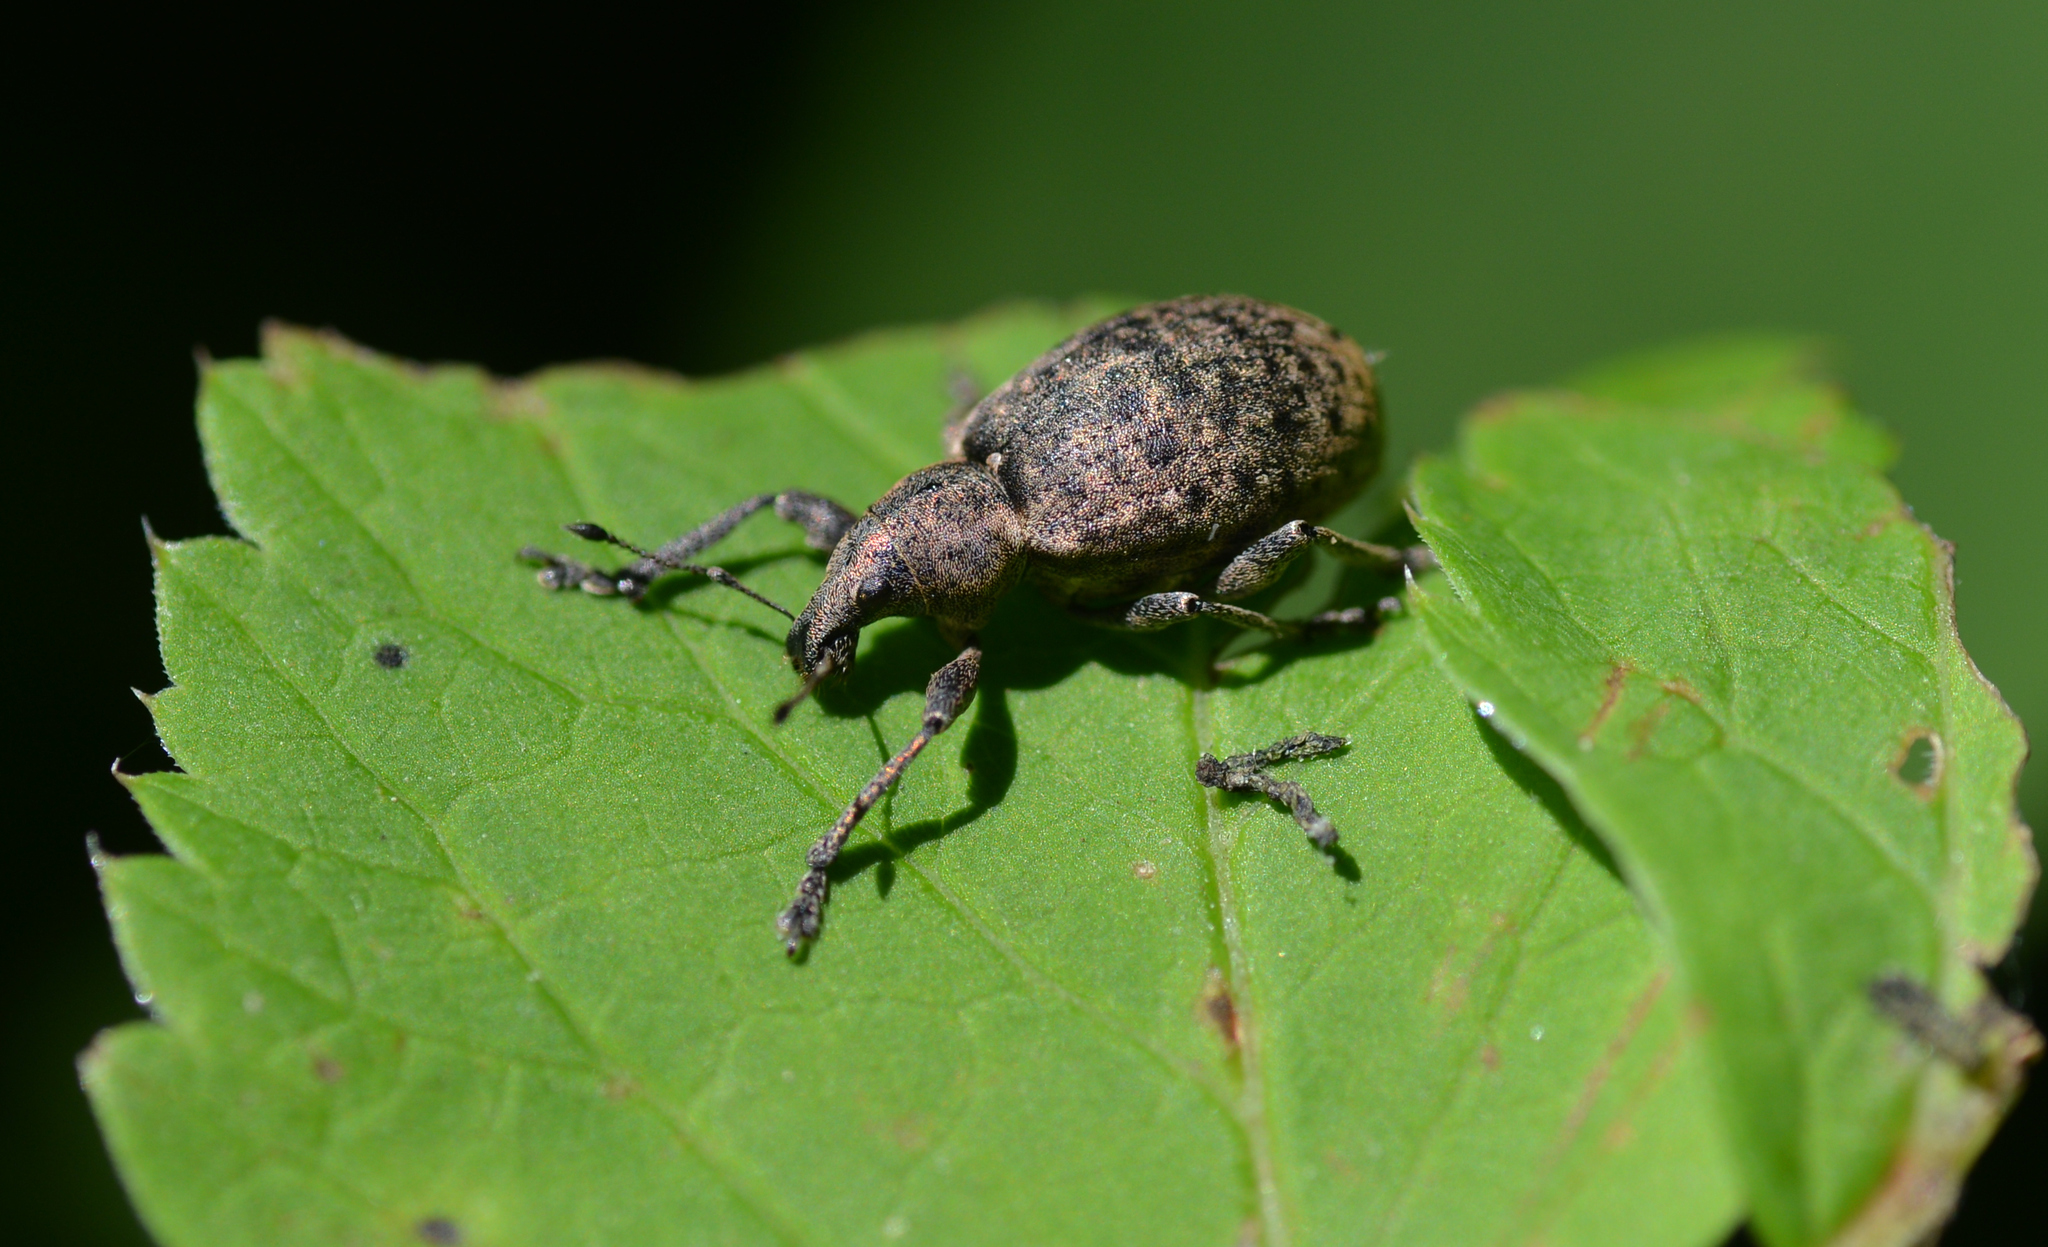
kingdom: Animalia
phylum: Arthropoda
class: Insecta
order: Coleoptera
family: Curculionidae
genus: Liophloeus
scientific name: Liophloeus tessulatus
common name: Weevil
